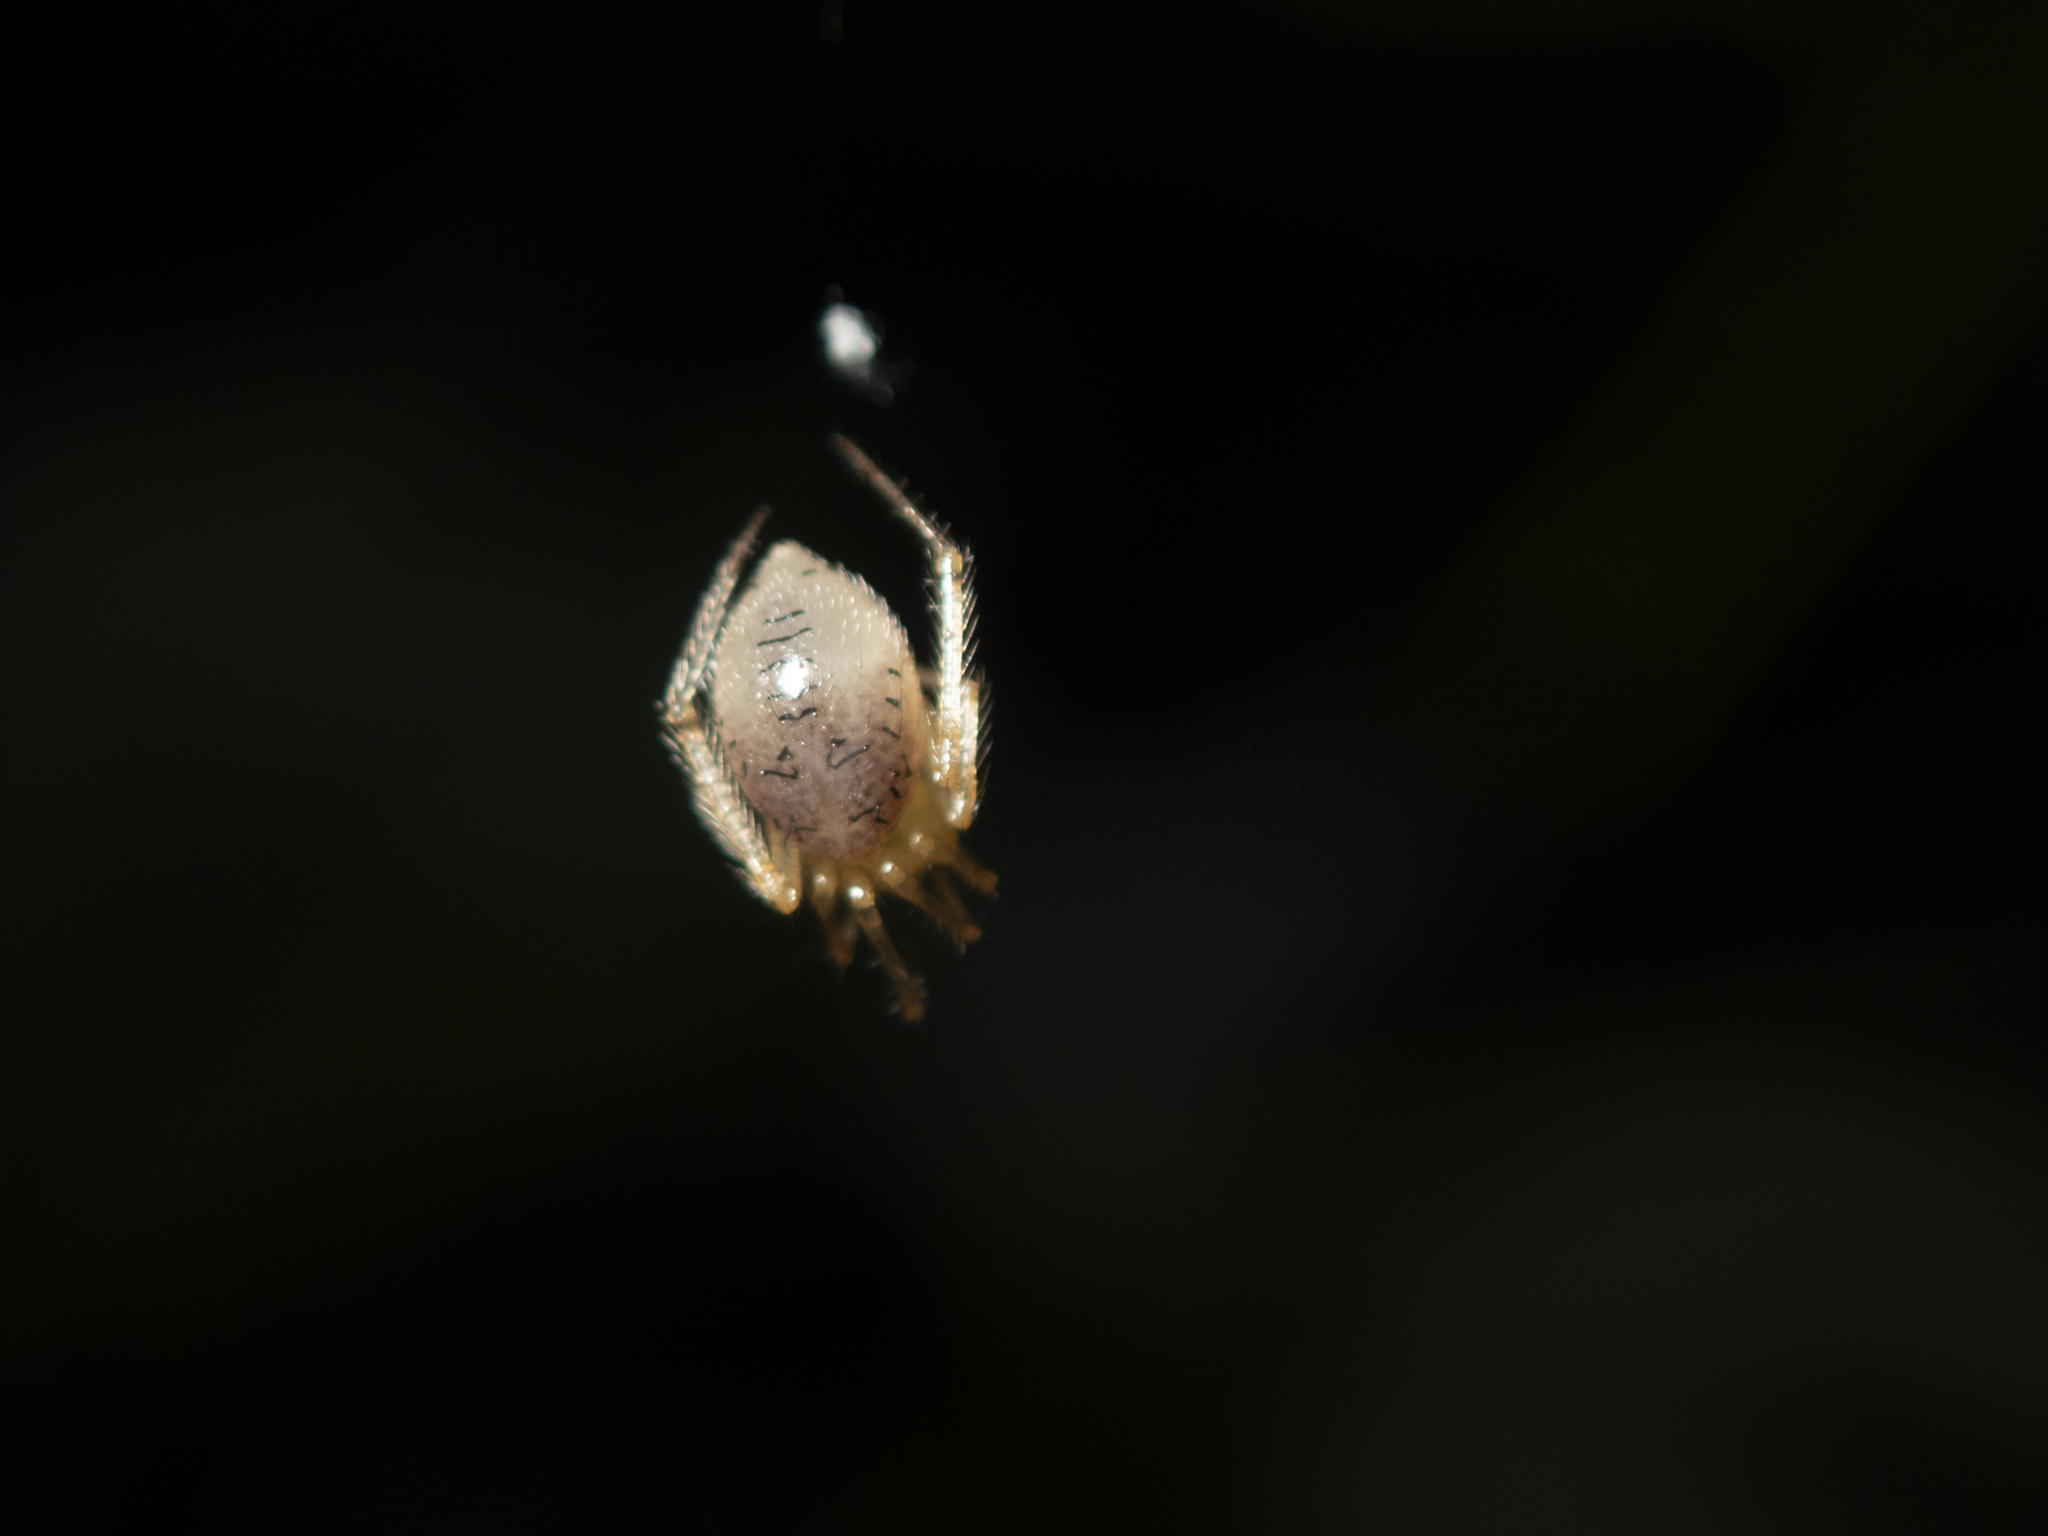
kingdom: Animalia
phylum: Arthropoda
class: Arachnida
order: Araneae
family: Theridiidae
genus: Phycosoma
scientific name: Phycosoma digitula
